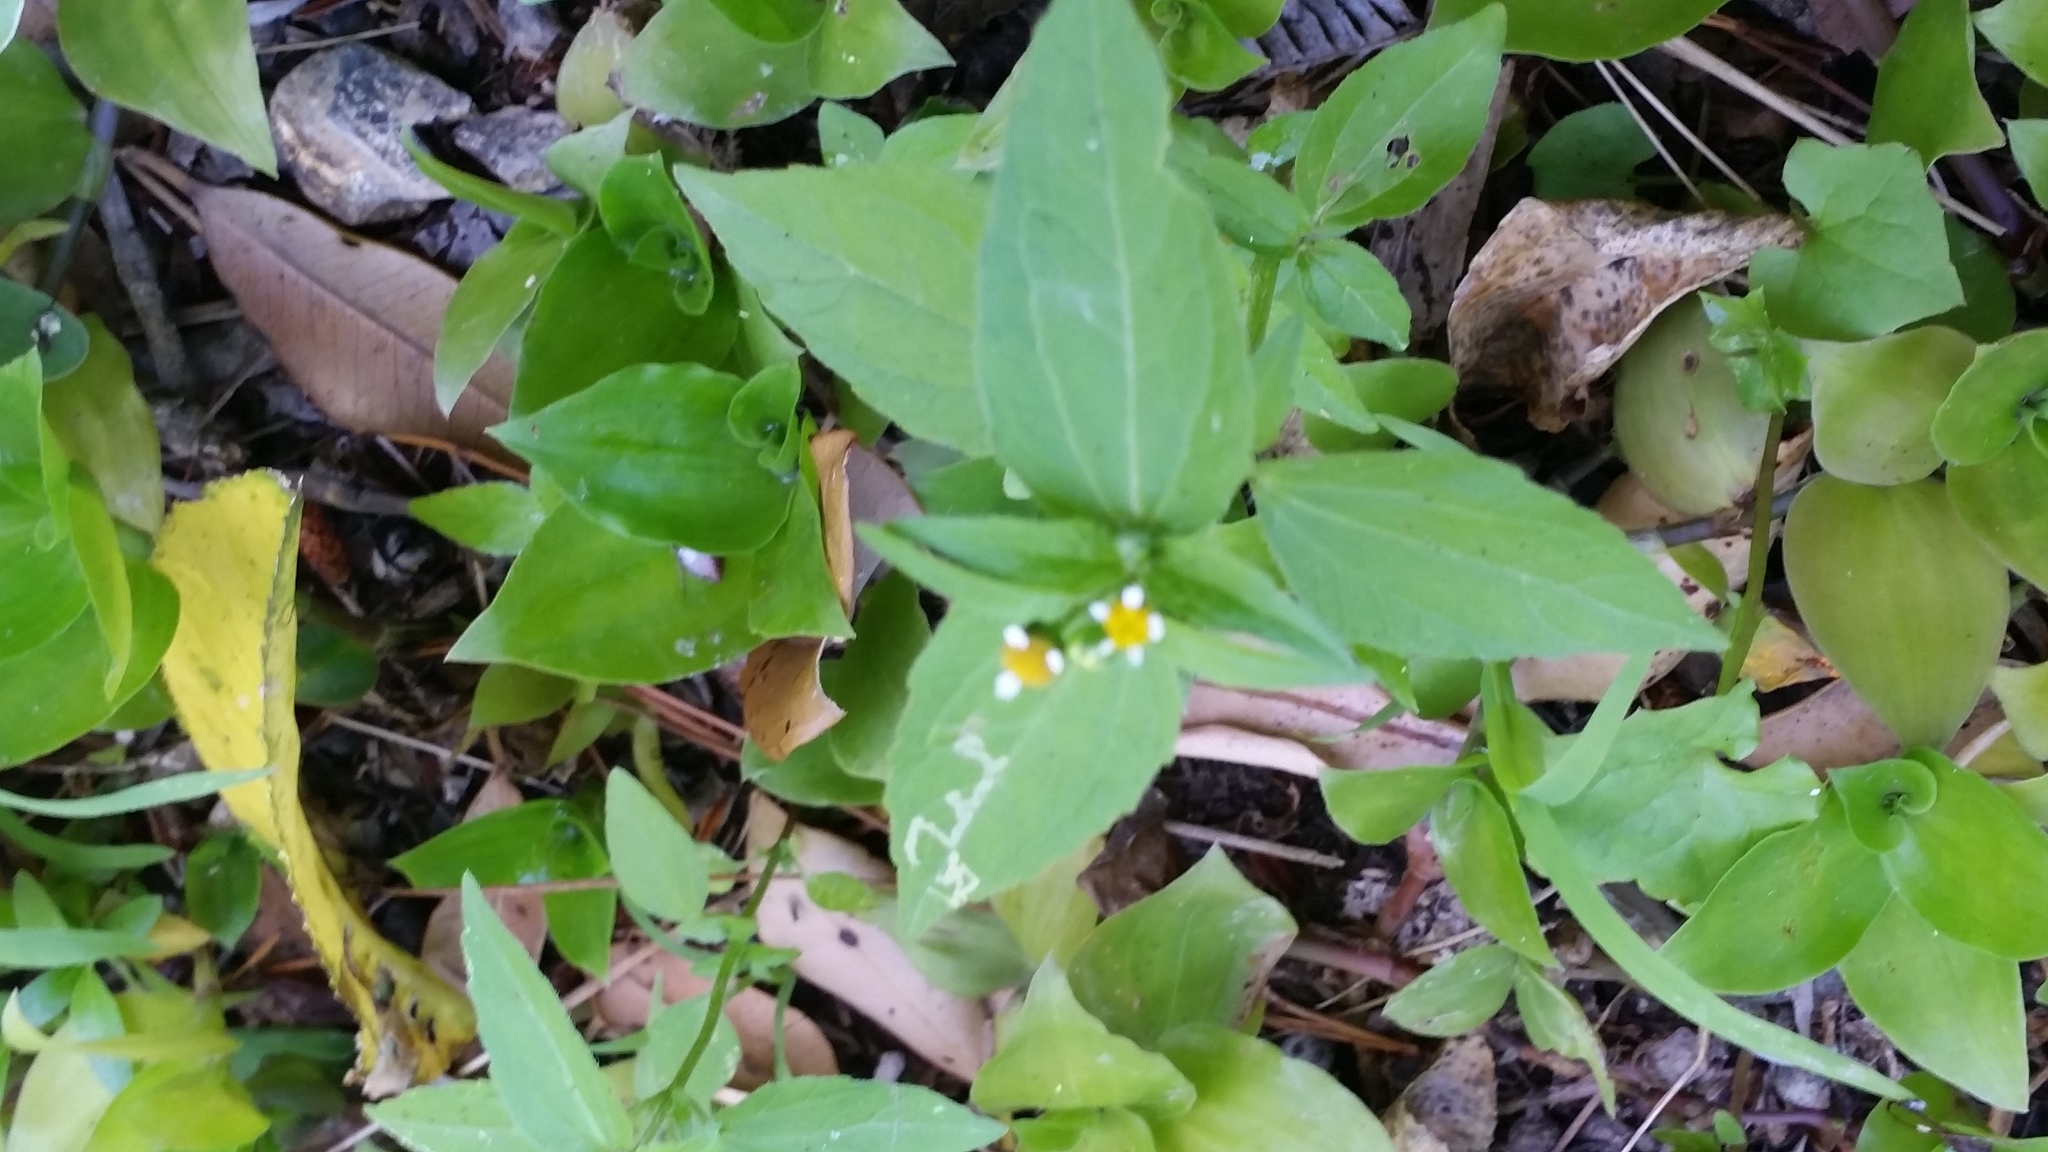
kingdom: Plantae
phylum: Tracheophyta
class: Magnoliopsida
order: Asterales
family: Asteraceae
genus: Galinsoga
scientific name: Galinsoga parviflora
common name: Gallant soldier
